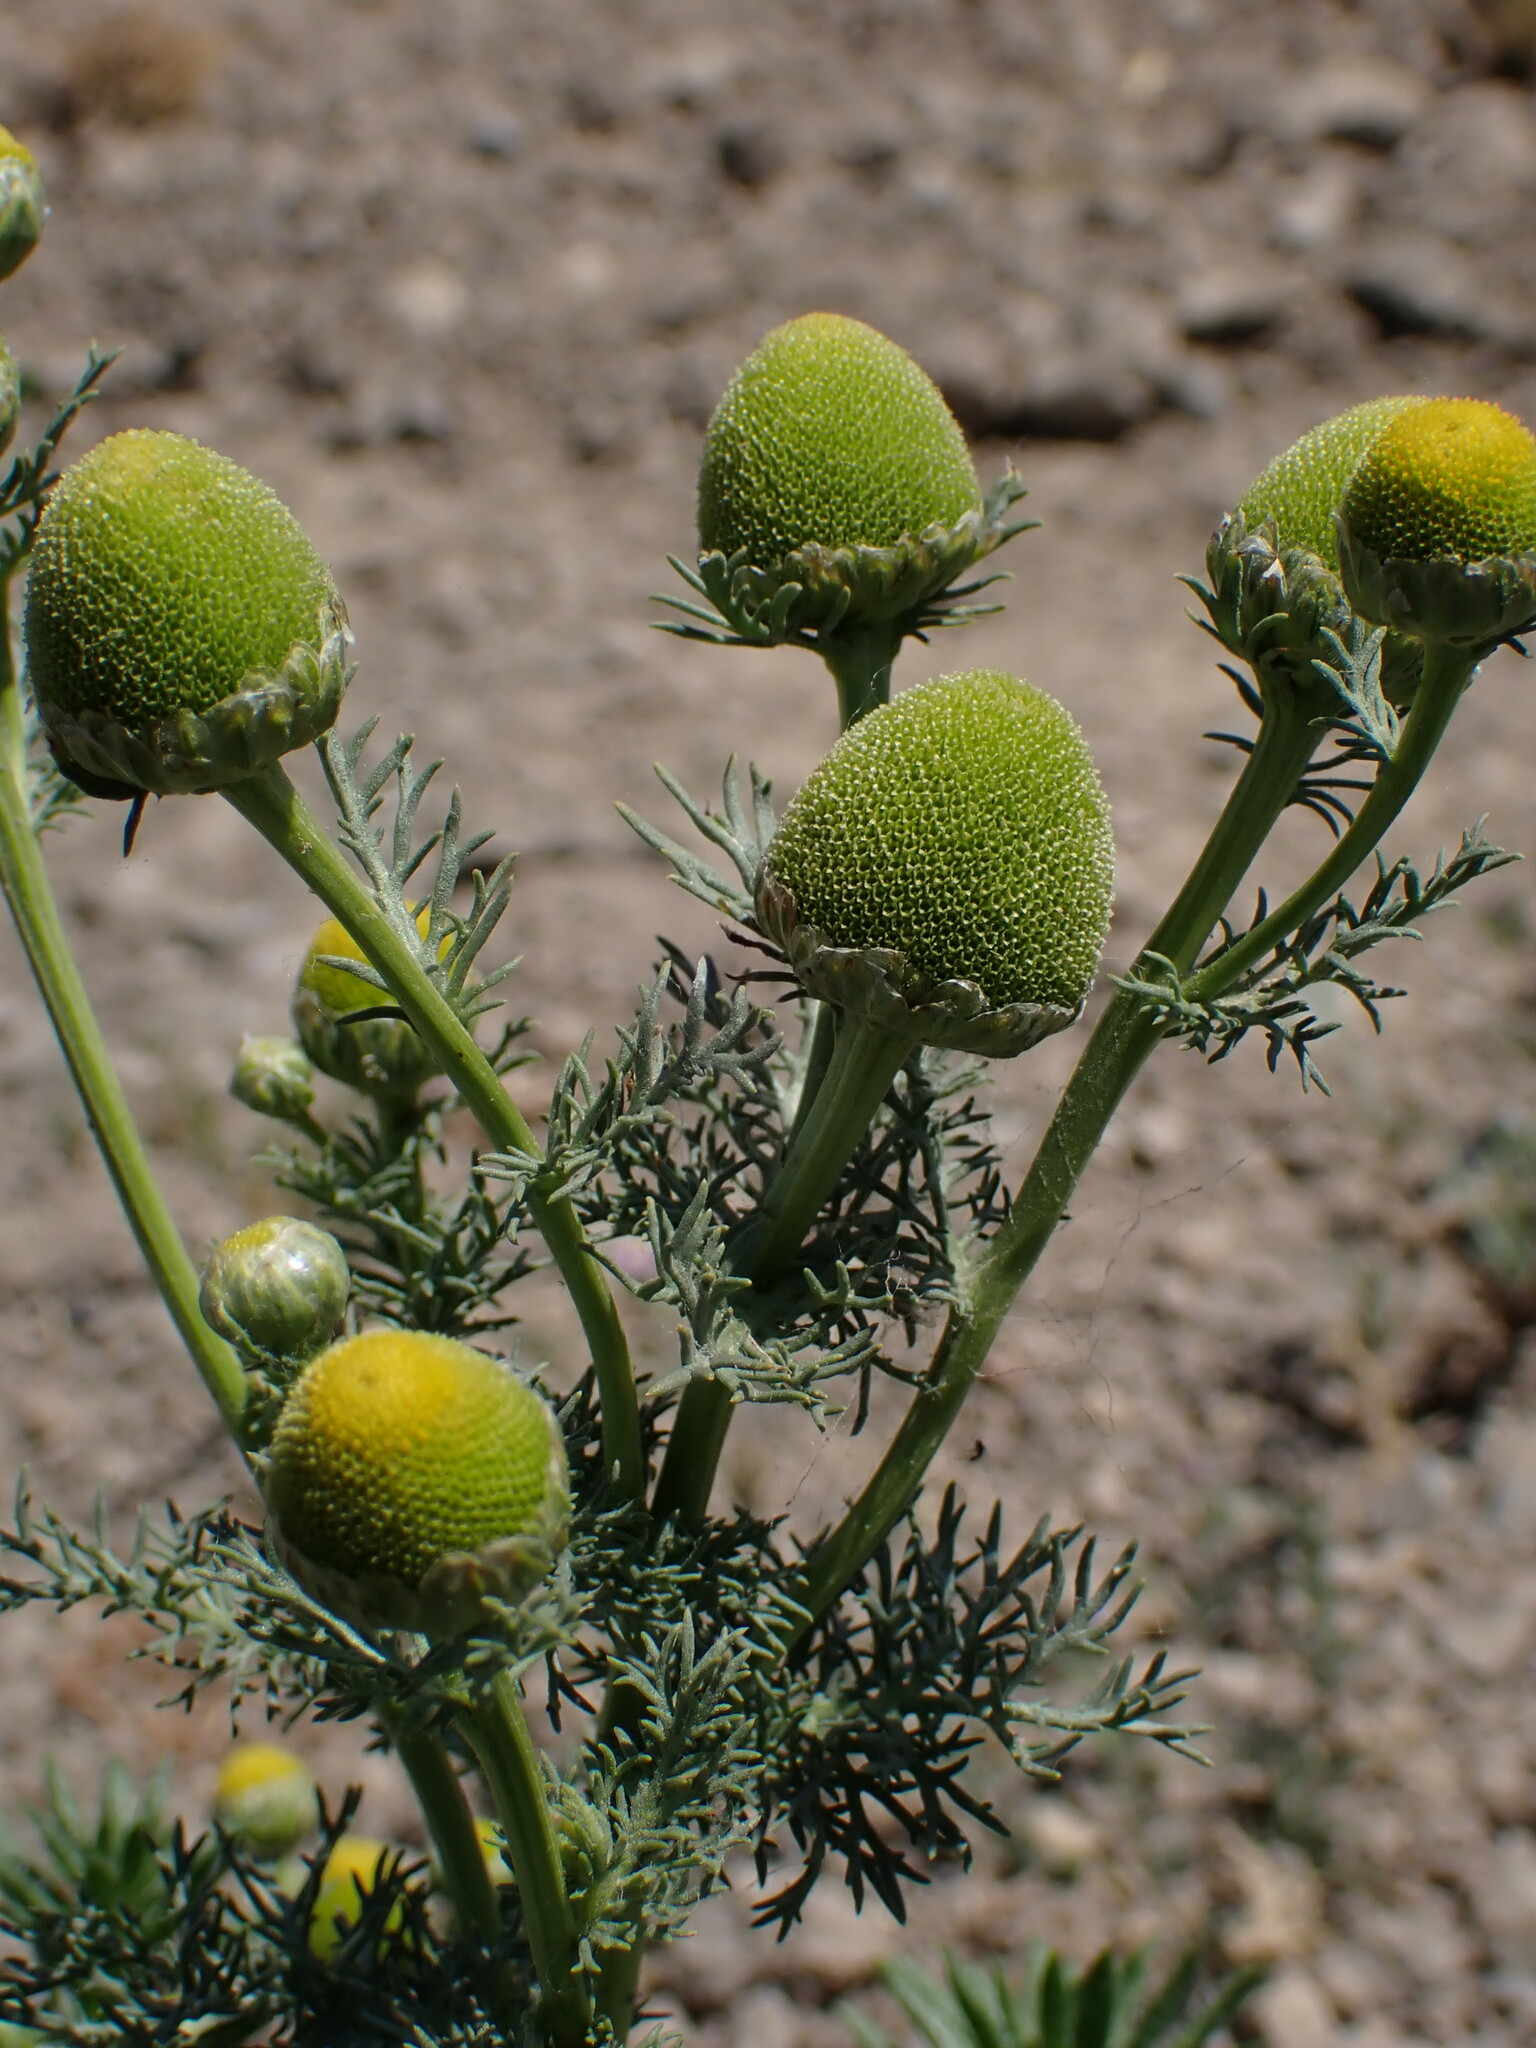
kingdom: Plantae
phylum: Tracheophyta
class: Magnoliopsida
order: Asterales
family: Asteraceae
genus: Matricaria
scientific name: Matricaria discoidea
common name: Disc mayweed
